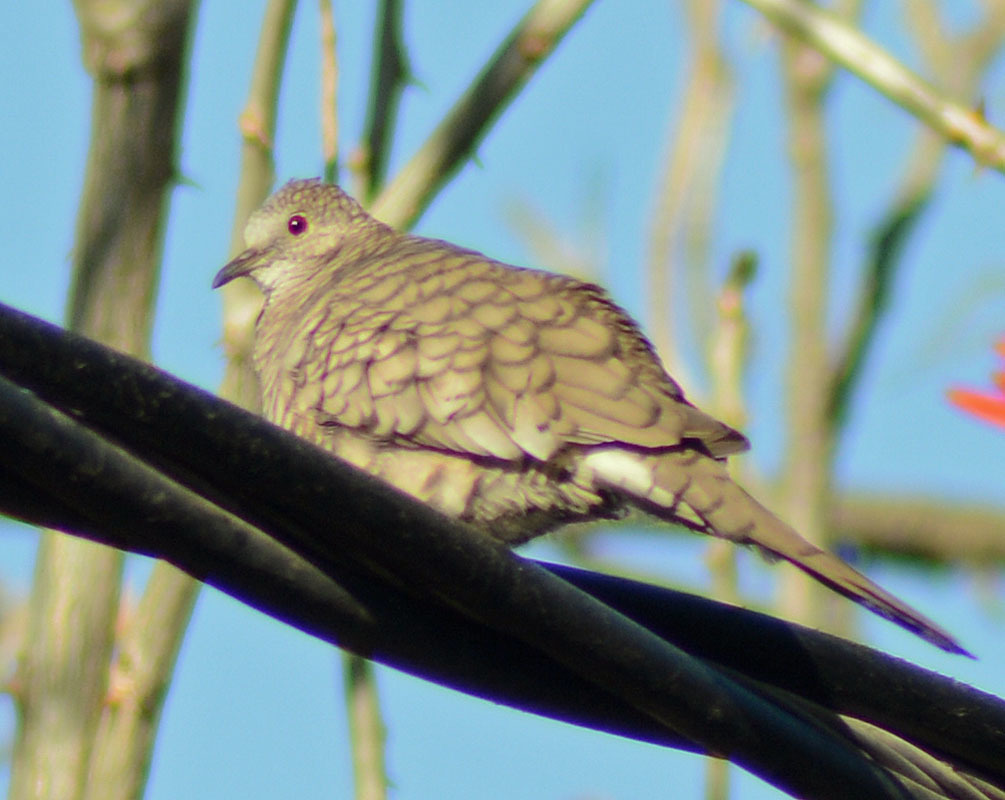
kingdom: Animalia
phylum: Chordata
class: Aves
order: Columbiformes
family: Columbidae
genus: Columbina
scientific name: Columbina inca
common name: Inca dove
